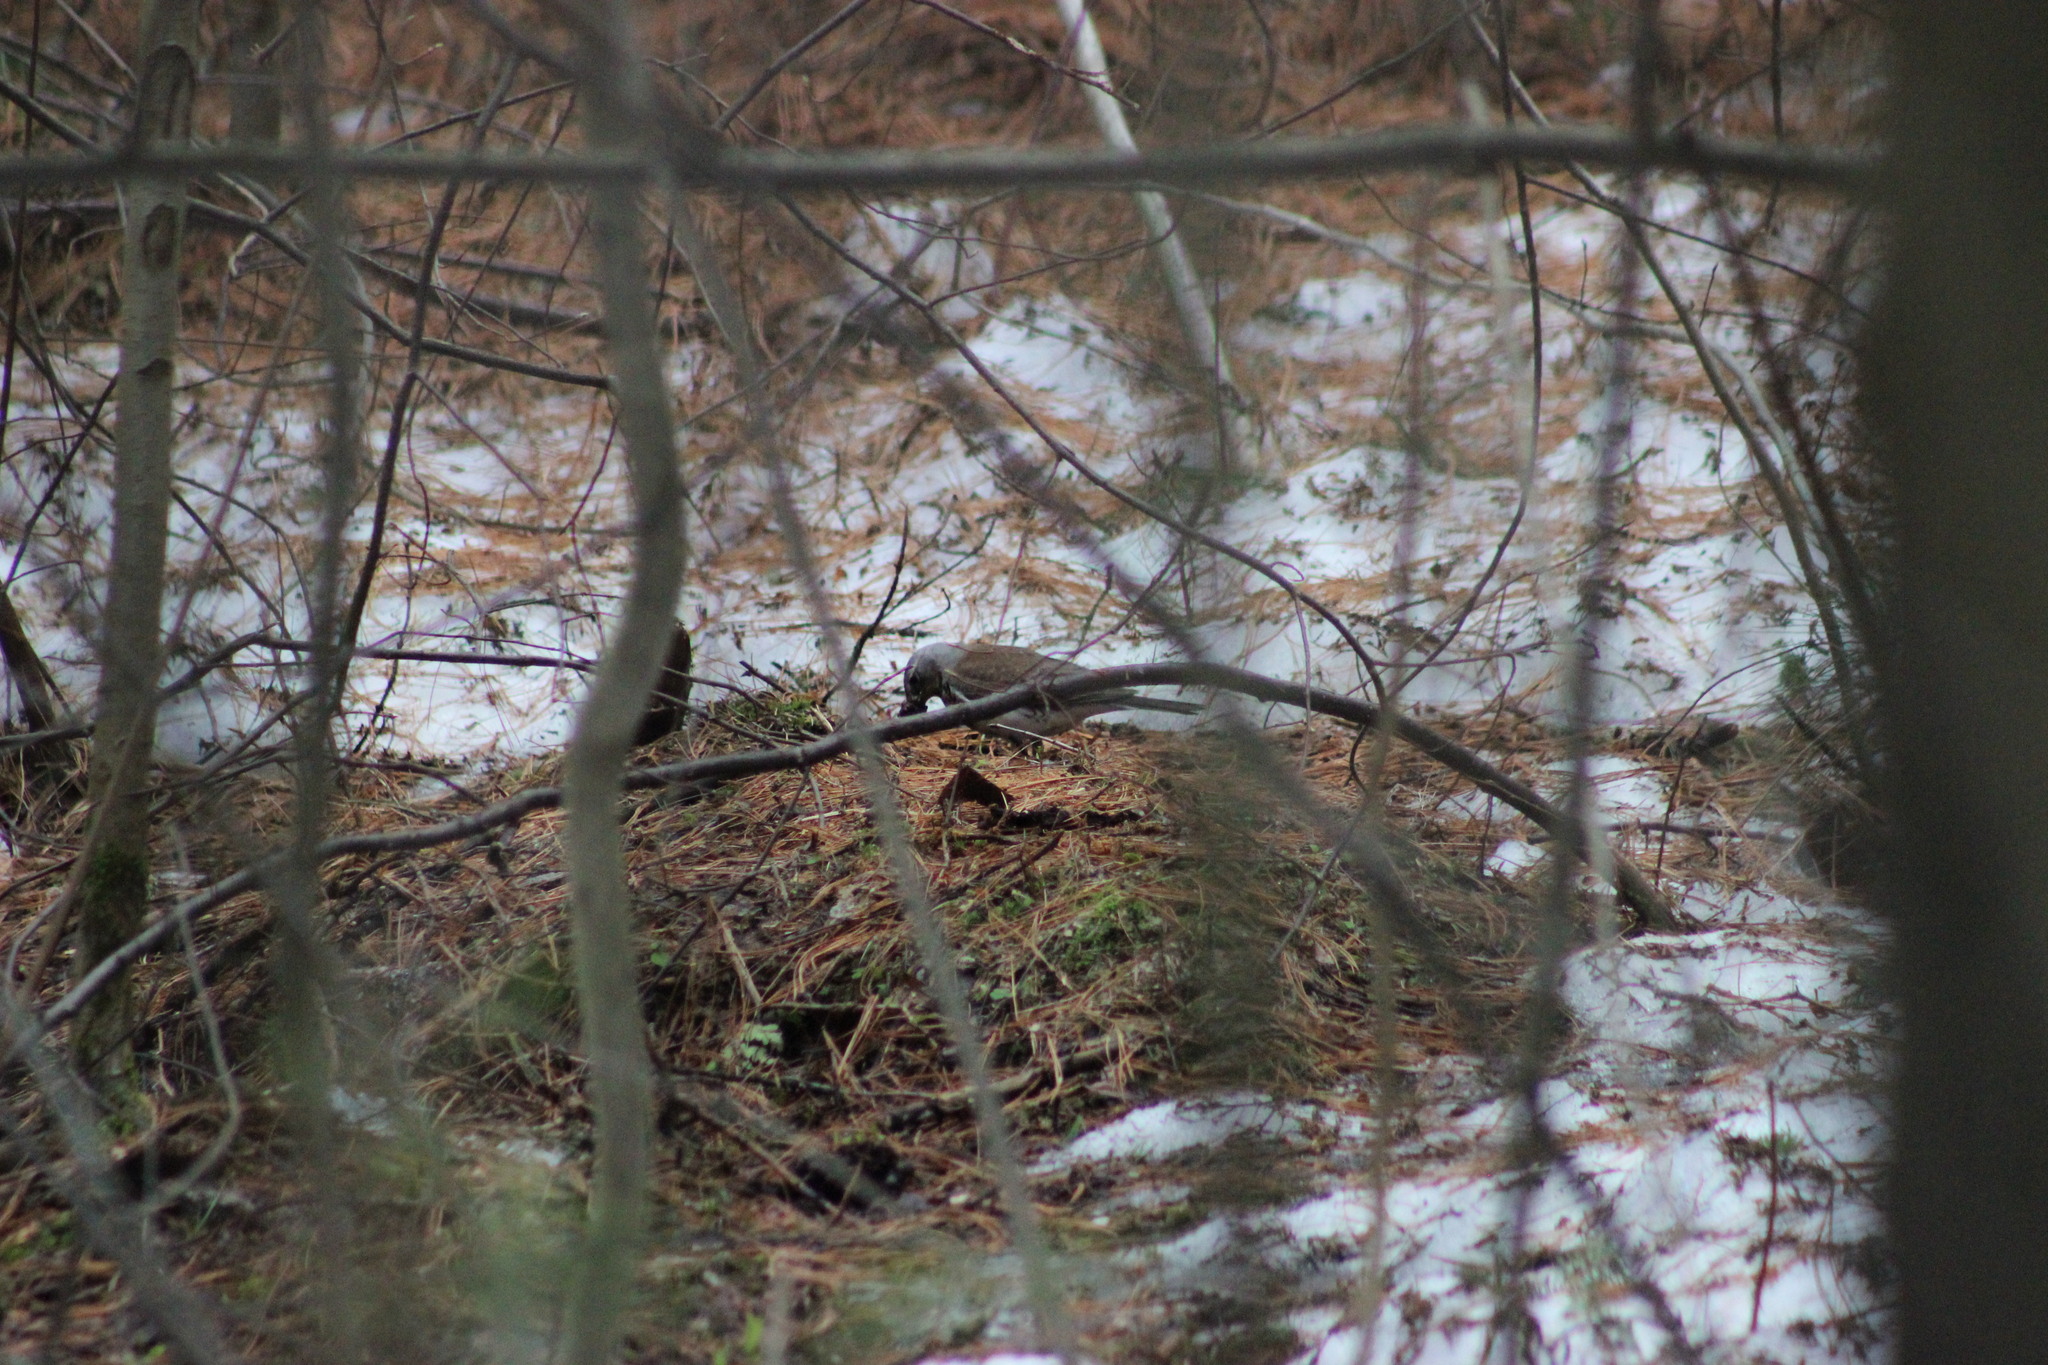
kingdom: Animalia
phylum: Chordata
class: Aves
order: Passeriformes
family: Turdidae
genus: Turdus
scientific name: Turdus pilaris
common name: Fieldfare
